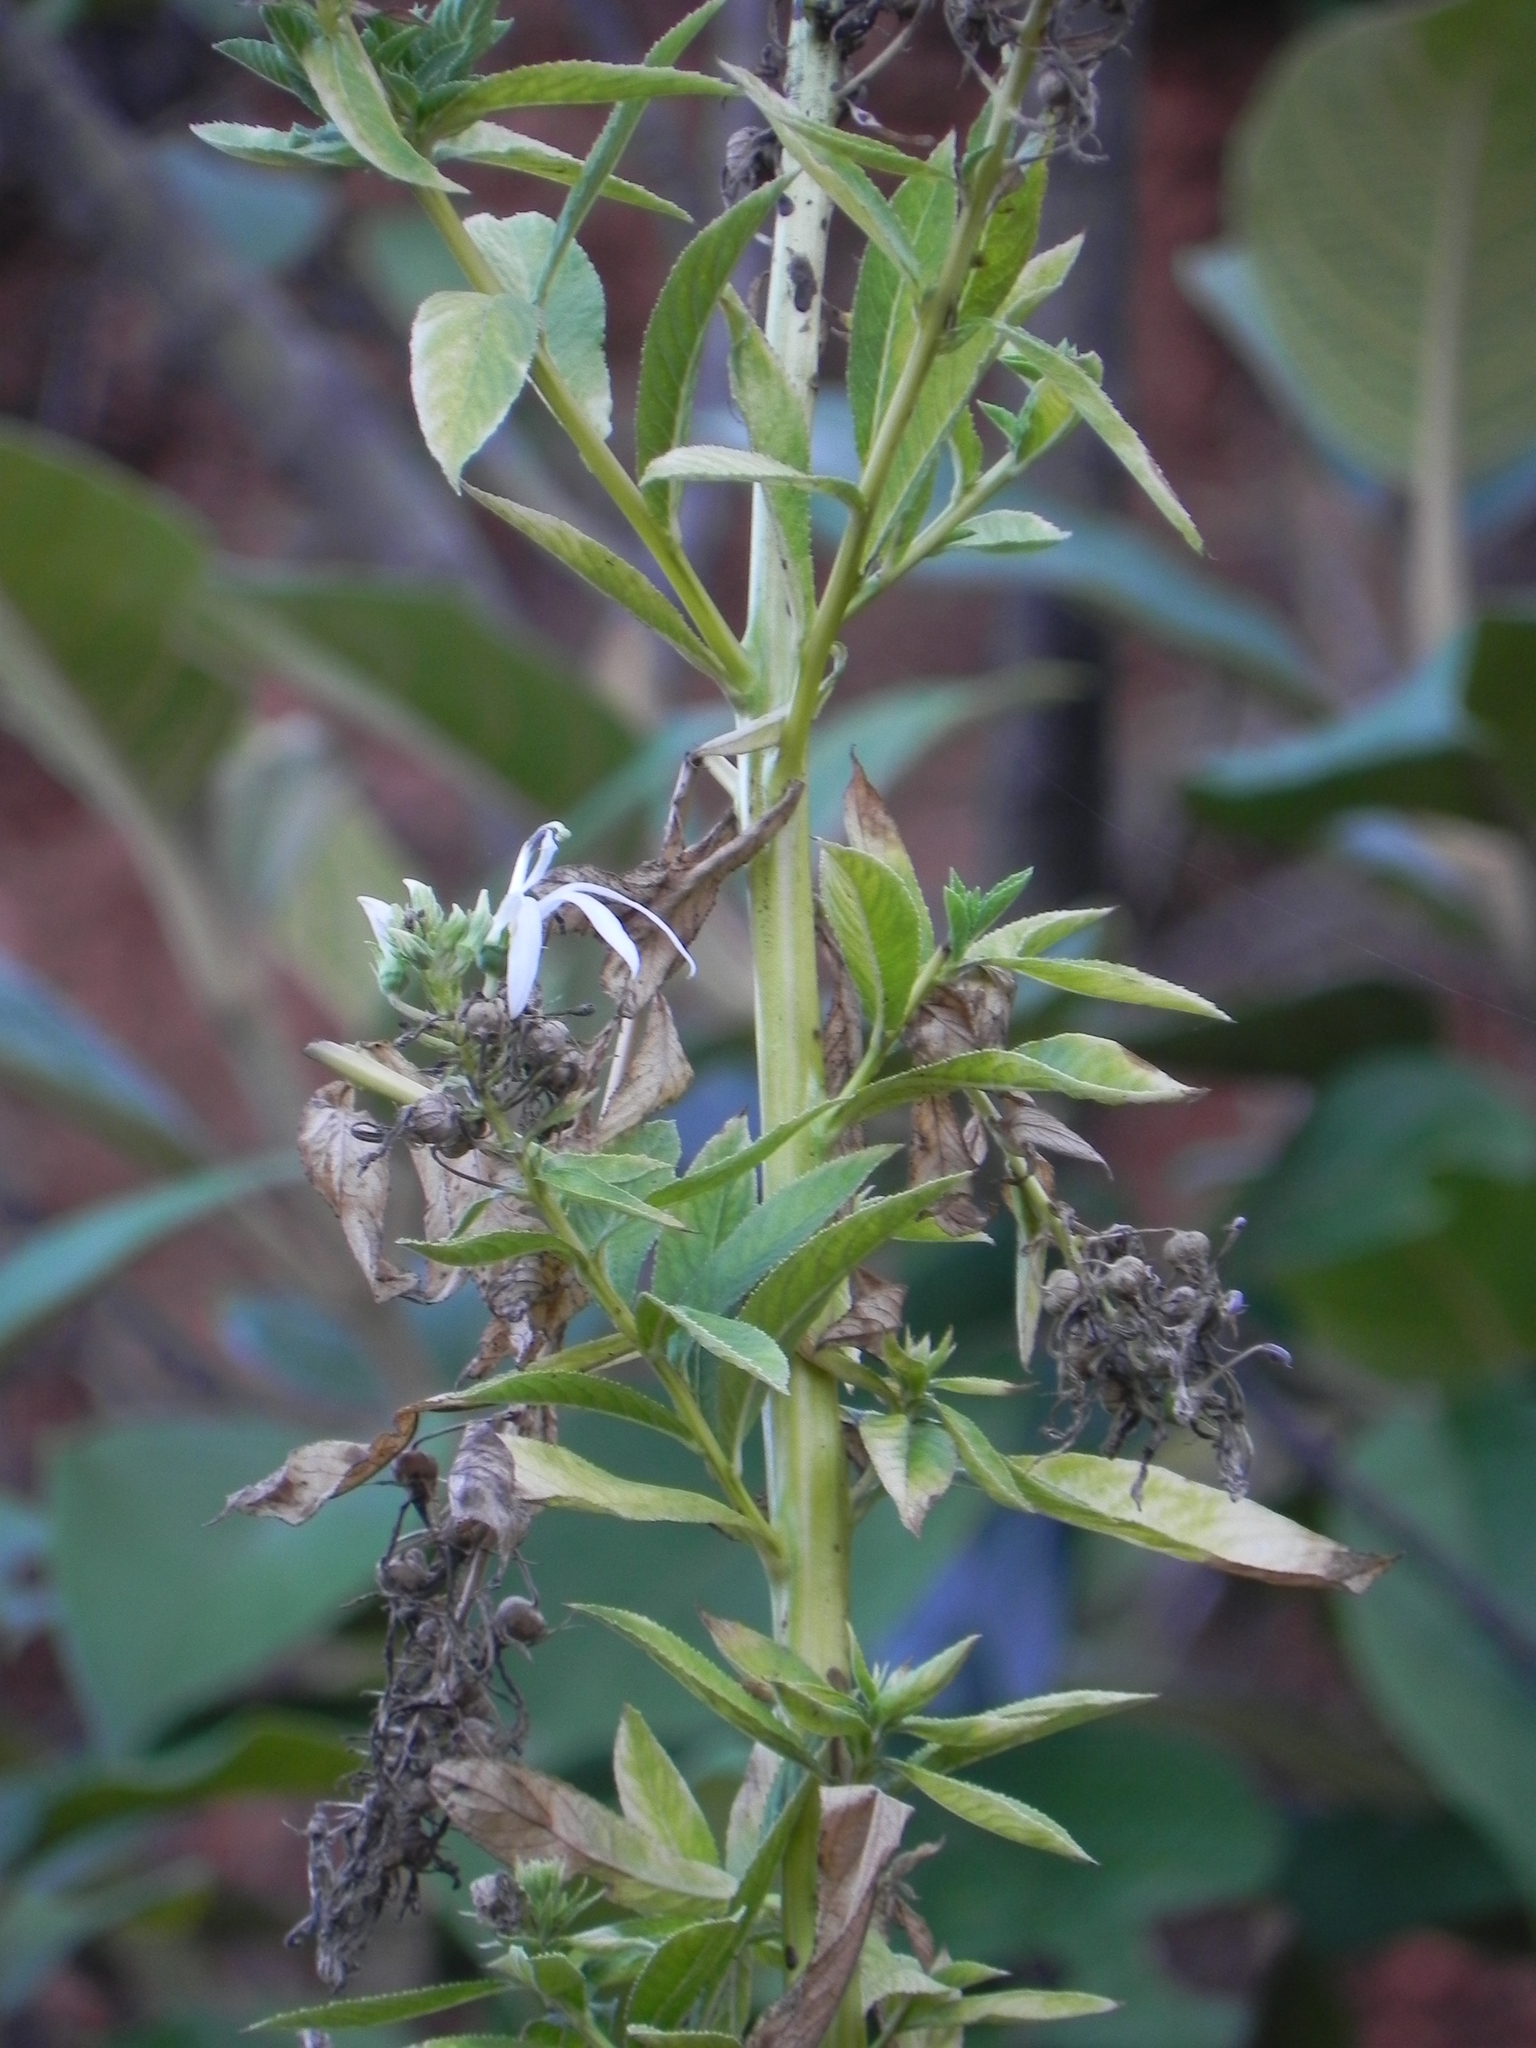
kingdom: Plantae
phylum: Tracheophyta
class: Magnoliopsida
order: Asterales
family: Campanulaceae
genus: Lobelia
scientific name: Lobelia nicotianifolia
